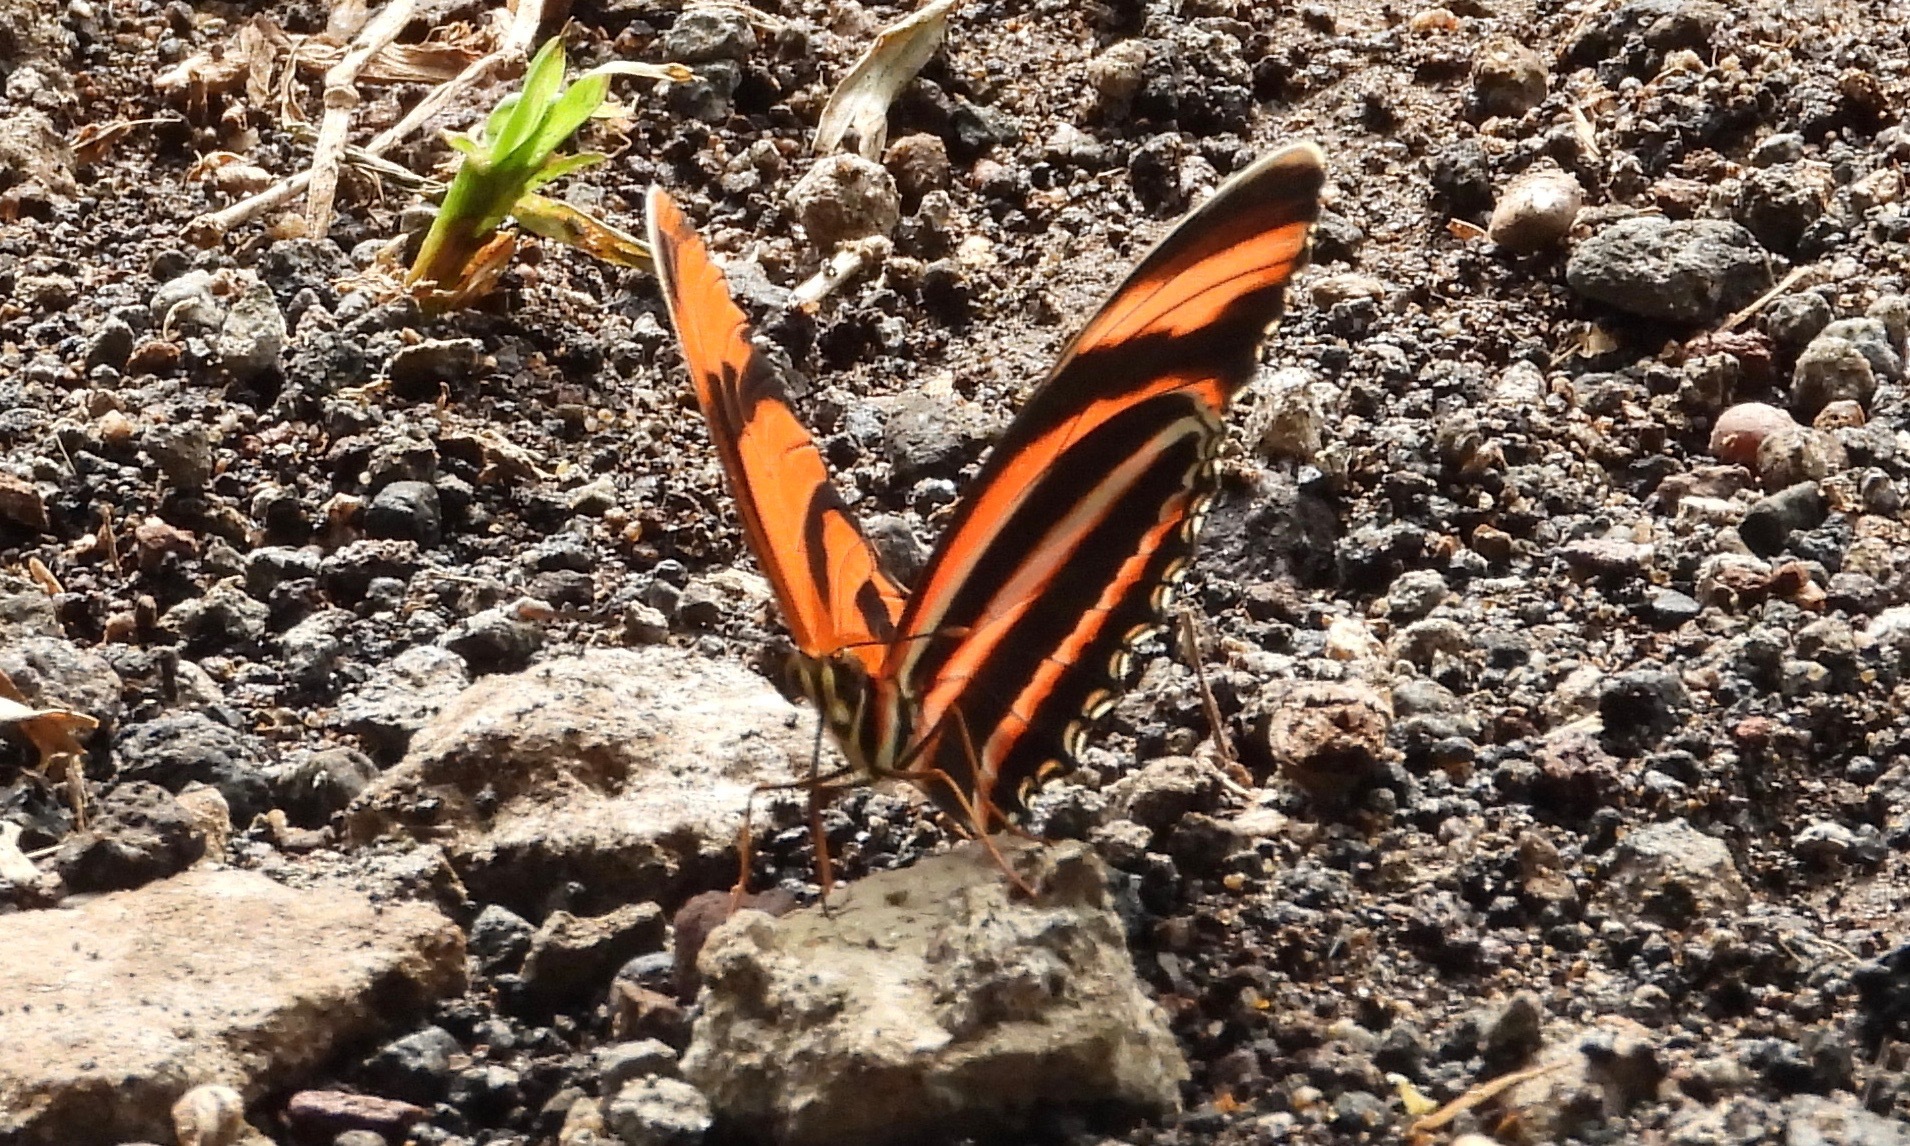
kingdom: Animalia
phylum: Arthropoda
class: Insecta
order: Lepidoptera
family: Nymphalidae
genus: Dryadula
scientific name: Dryadula phaetusa
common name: Banded orange heliconian
